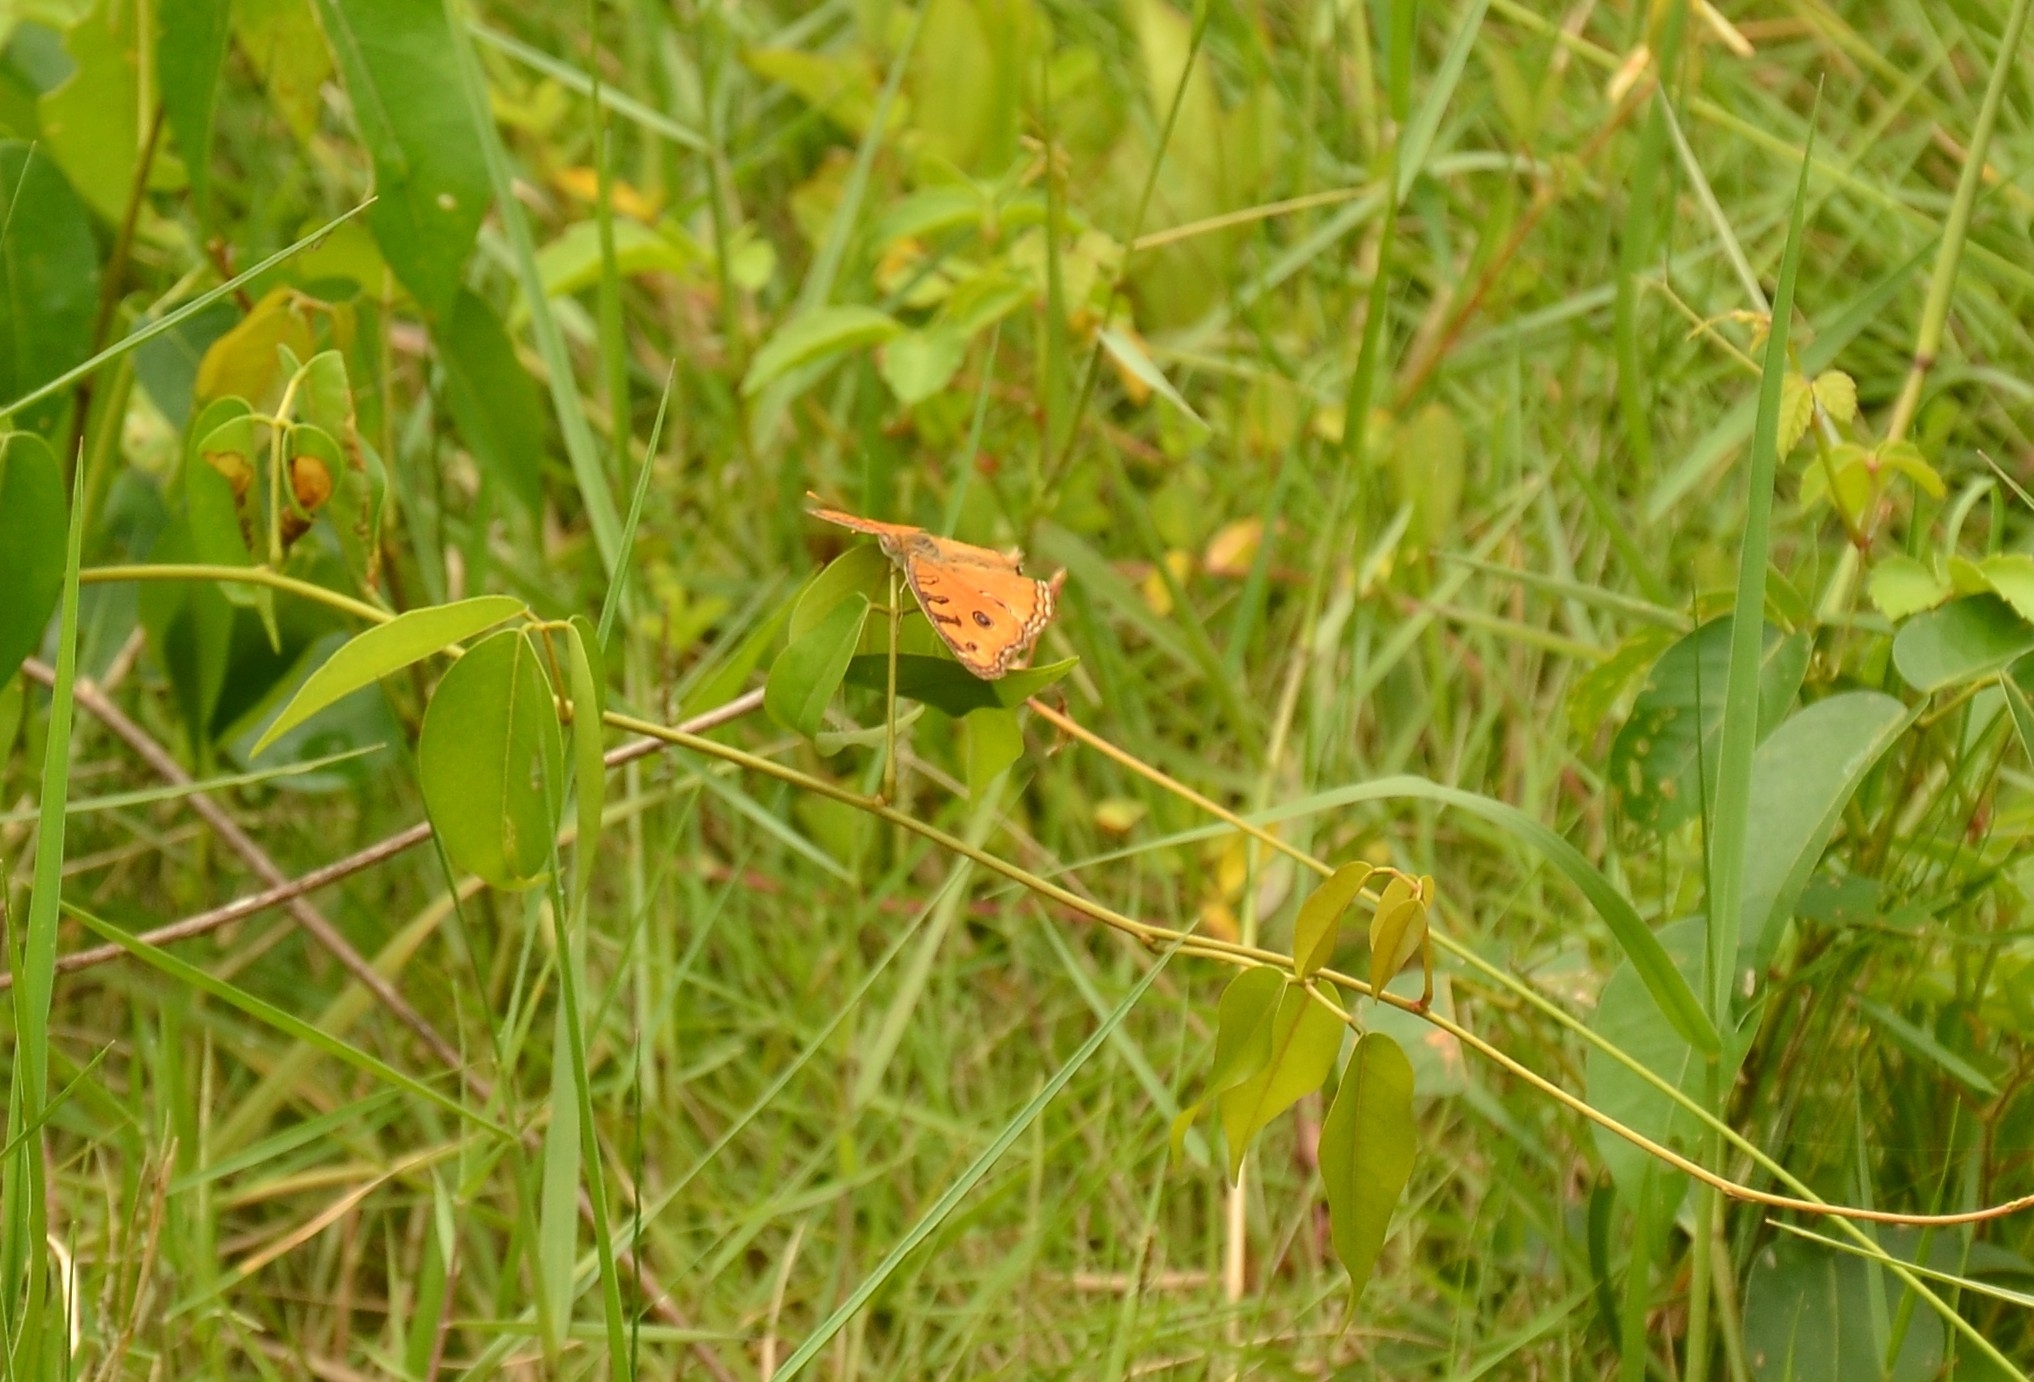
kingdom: Animalia
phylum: Arthropoda
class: Insecta
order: Lepidoptera
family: Nymphalidae
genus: Junonia
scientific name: Junonia almana
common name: Peacock pansy
